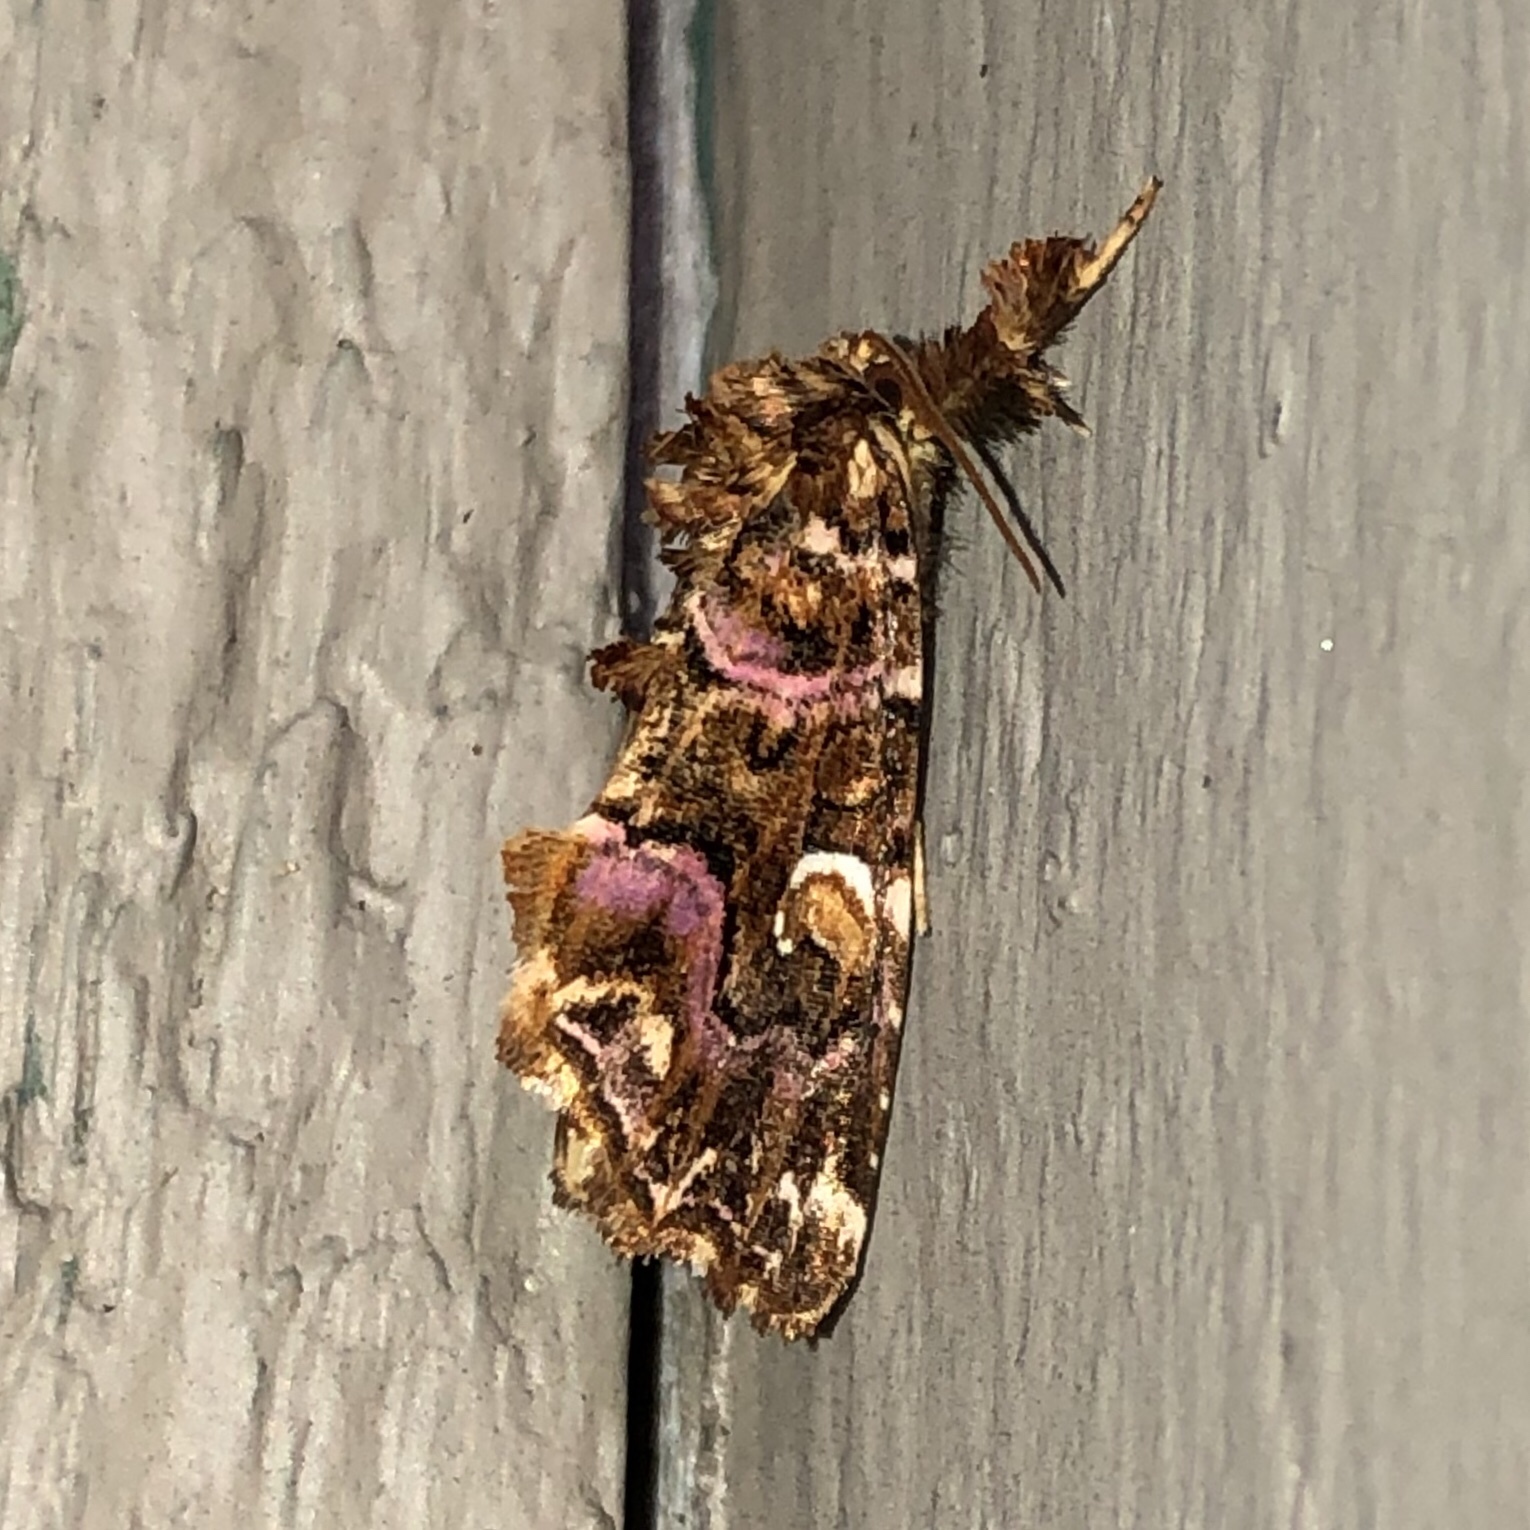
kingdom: Animalia
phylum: Arthropoda
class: Insecta
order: Lepidoptera
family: Noctuidae
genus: Callopistria
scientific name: Callopistria mollissima
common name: Pink-shaded fern moth
